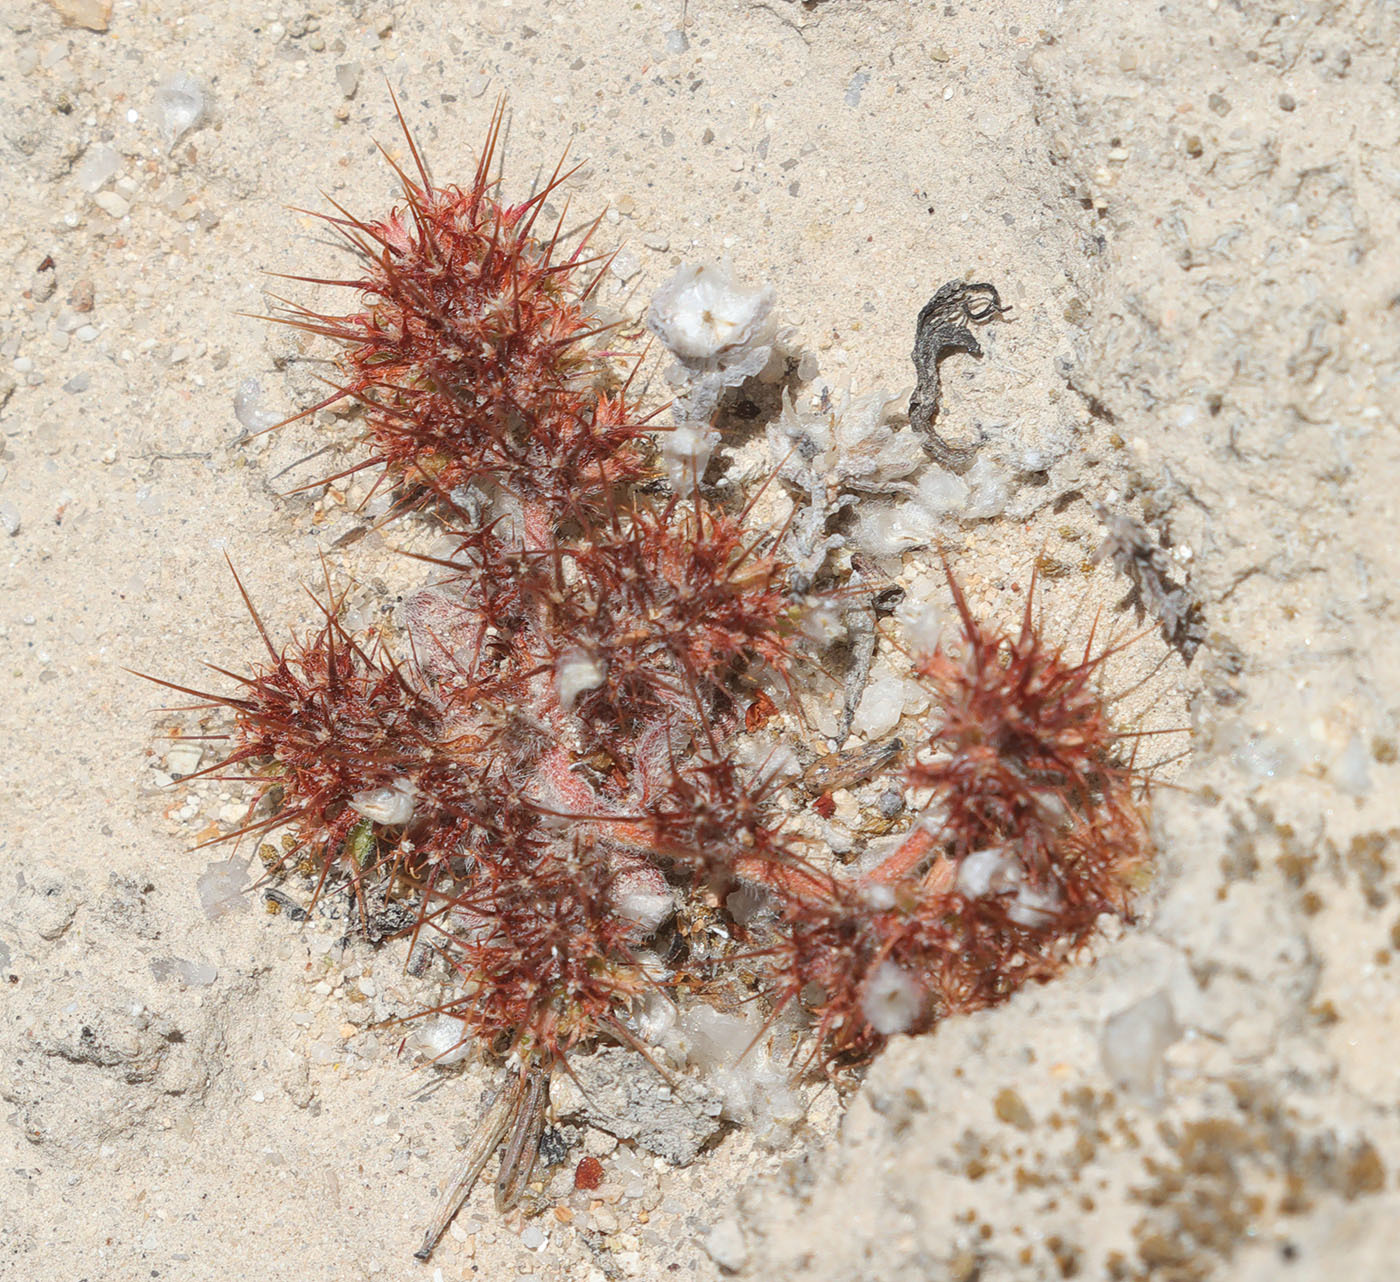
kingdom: Plantae
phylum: Tracheophyta
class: Magnoliopsida
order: Caryophyllales
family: Polygonaceae
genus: Chorizanthe
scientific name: Chorizanthe uniaristata
